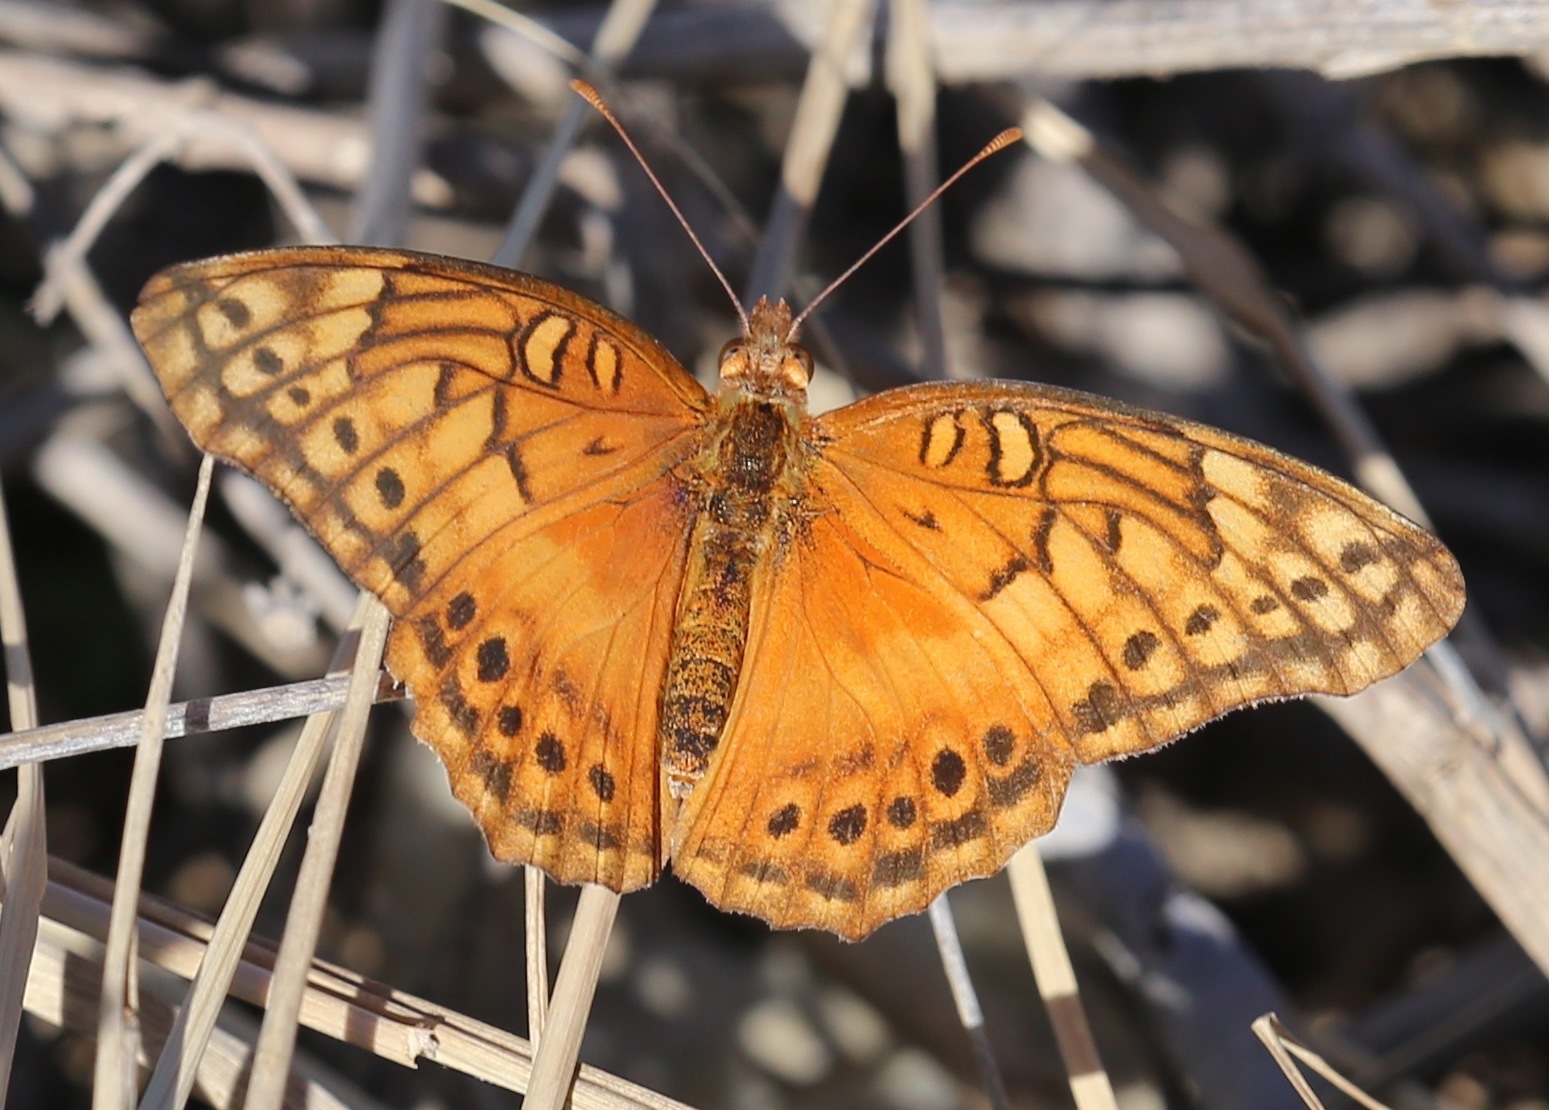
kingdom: Animalia
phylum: Arthropoda
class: Insecta
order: Lepidoptera
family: Nymphalidae
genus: Euptoieta
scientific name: Euptoieta hegesia
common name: Mexican fritillary
